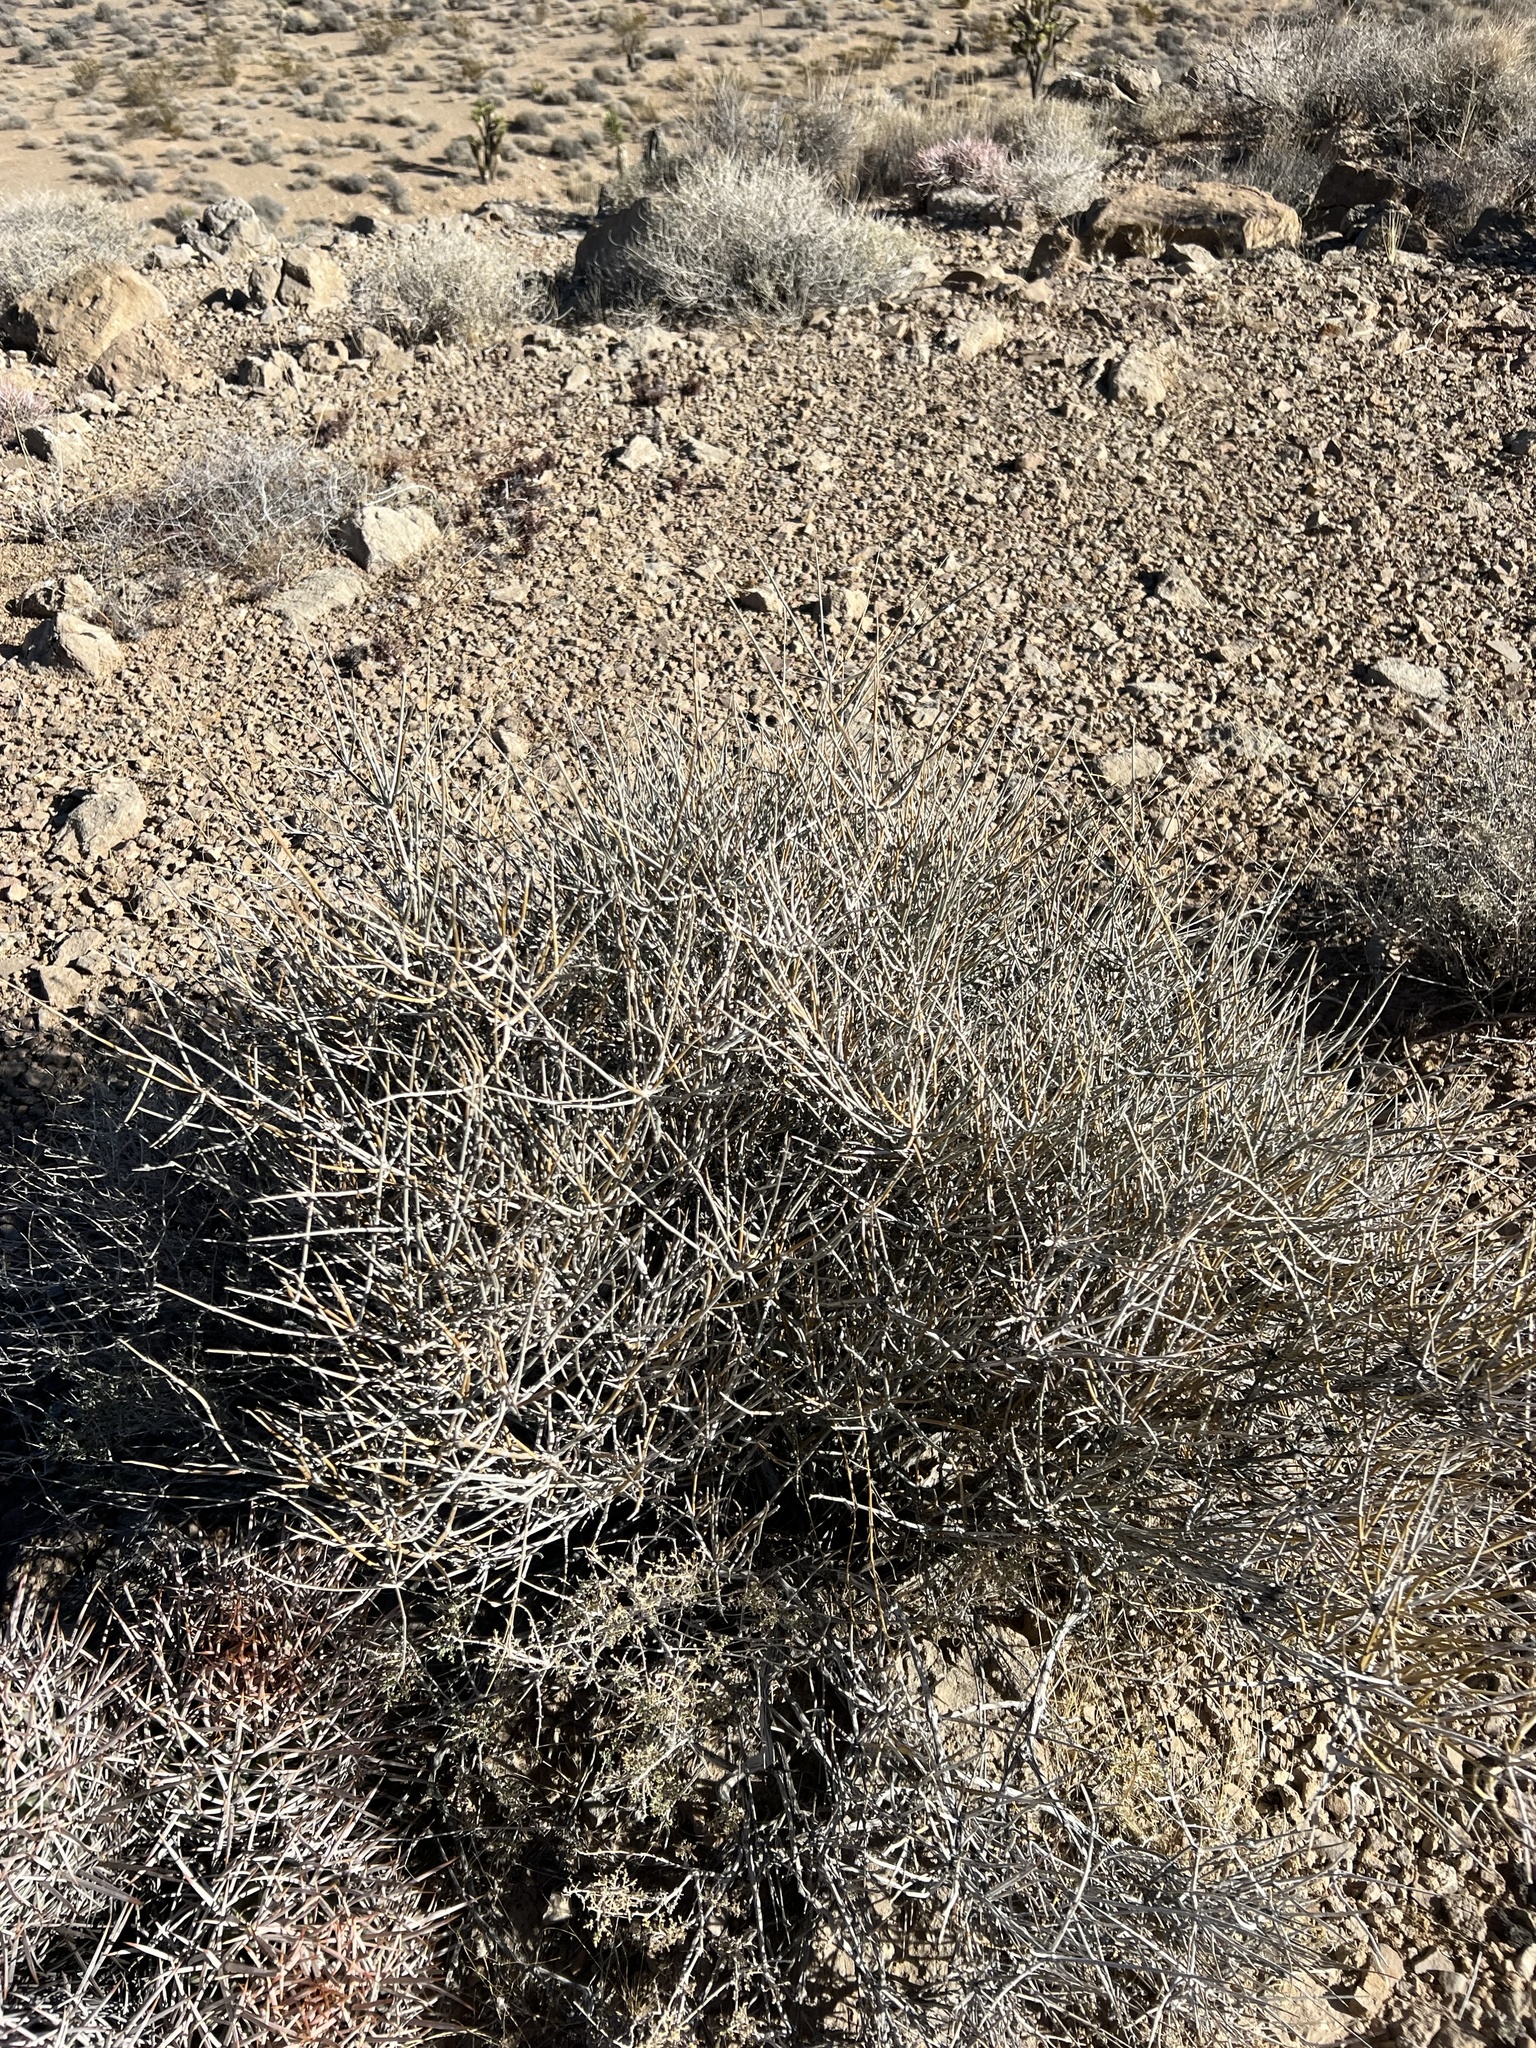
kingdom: Plantae
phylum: Tracheophyta
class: Gnetopsida
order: Ephedrales
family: Ephedraceae
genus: Ephedra
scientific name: Ephedra nevadensis
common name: Gray ephedra
